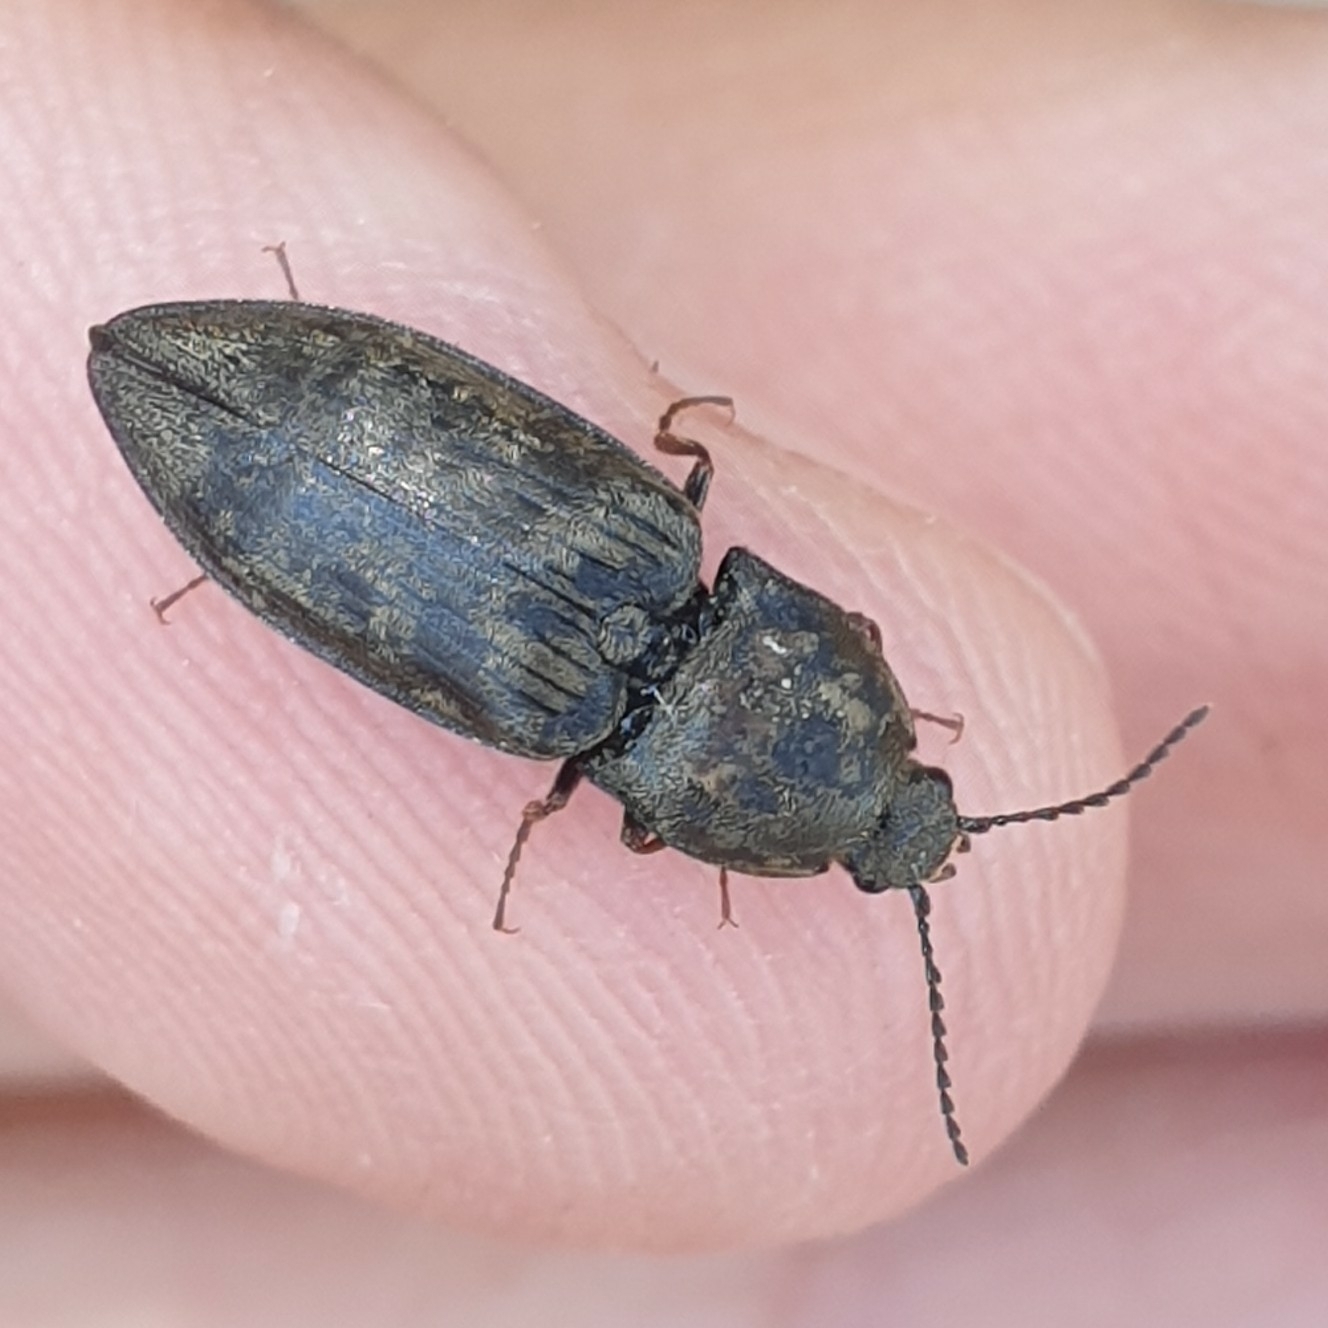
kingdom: Animalia
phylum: Arthropoda
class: Insecta
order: Coleoptera
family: Elateridae
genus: Prosternon
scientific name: Prosternon tessellatum
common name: Chequered click beetle
